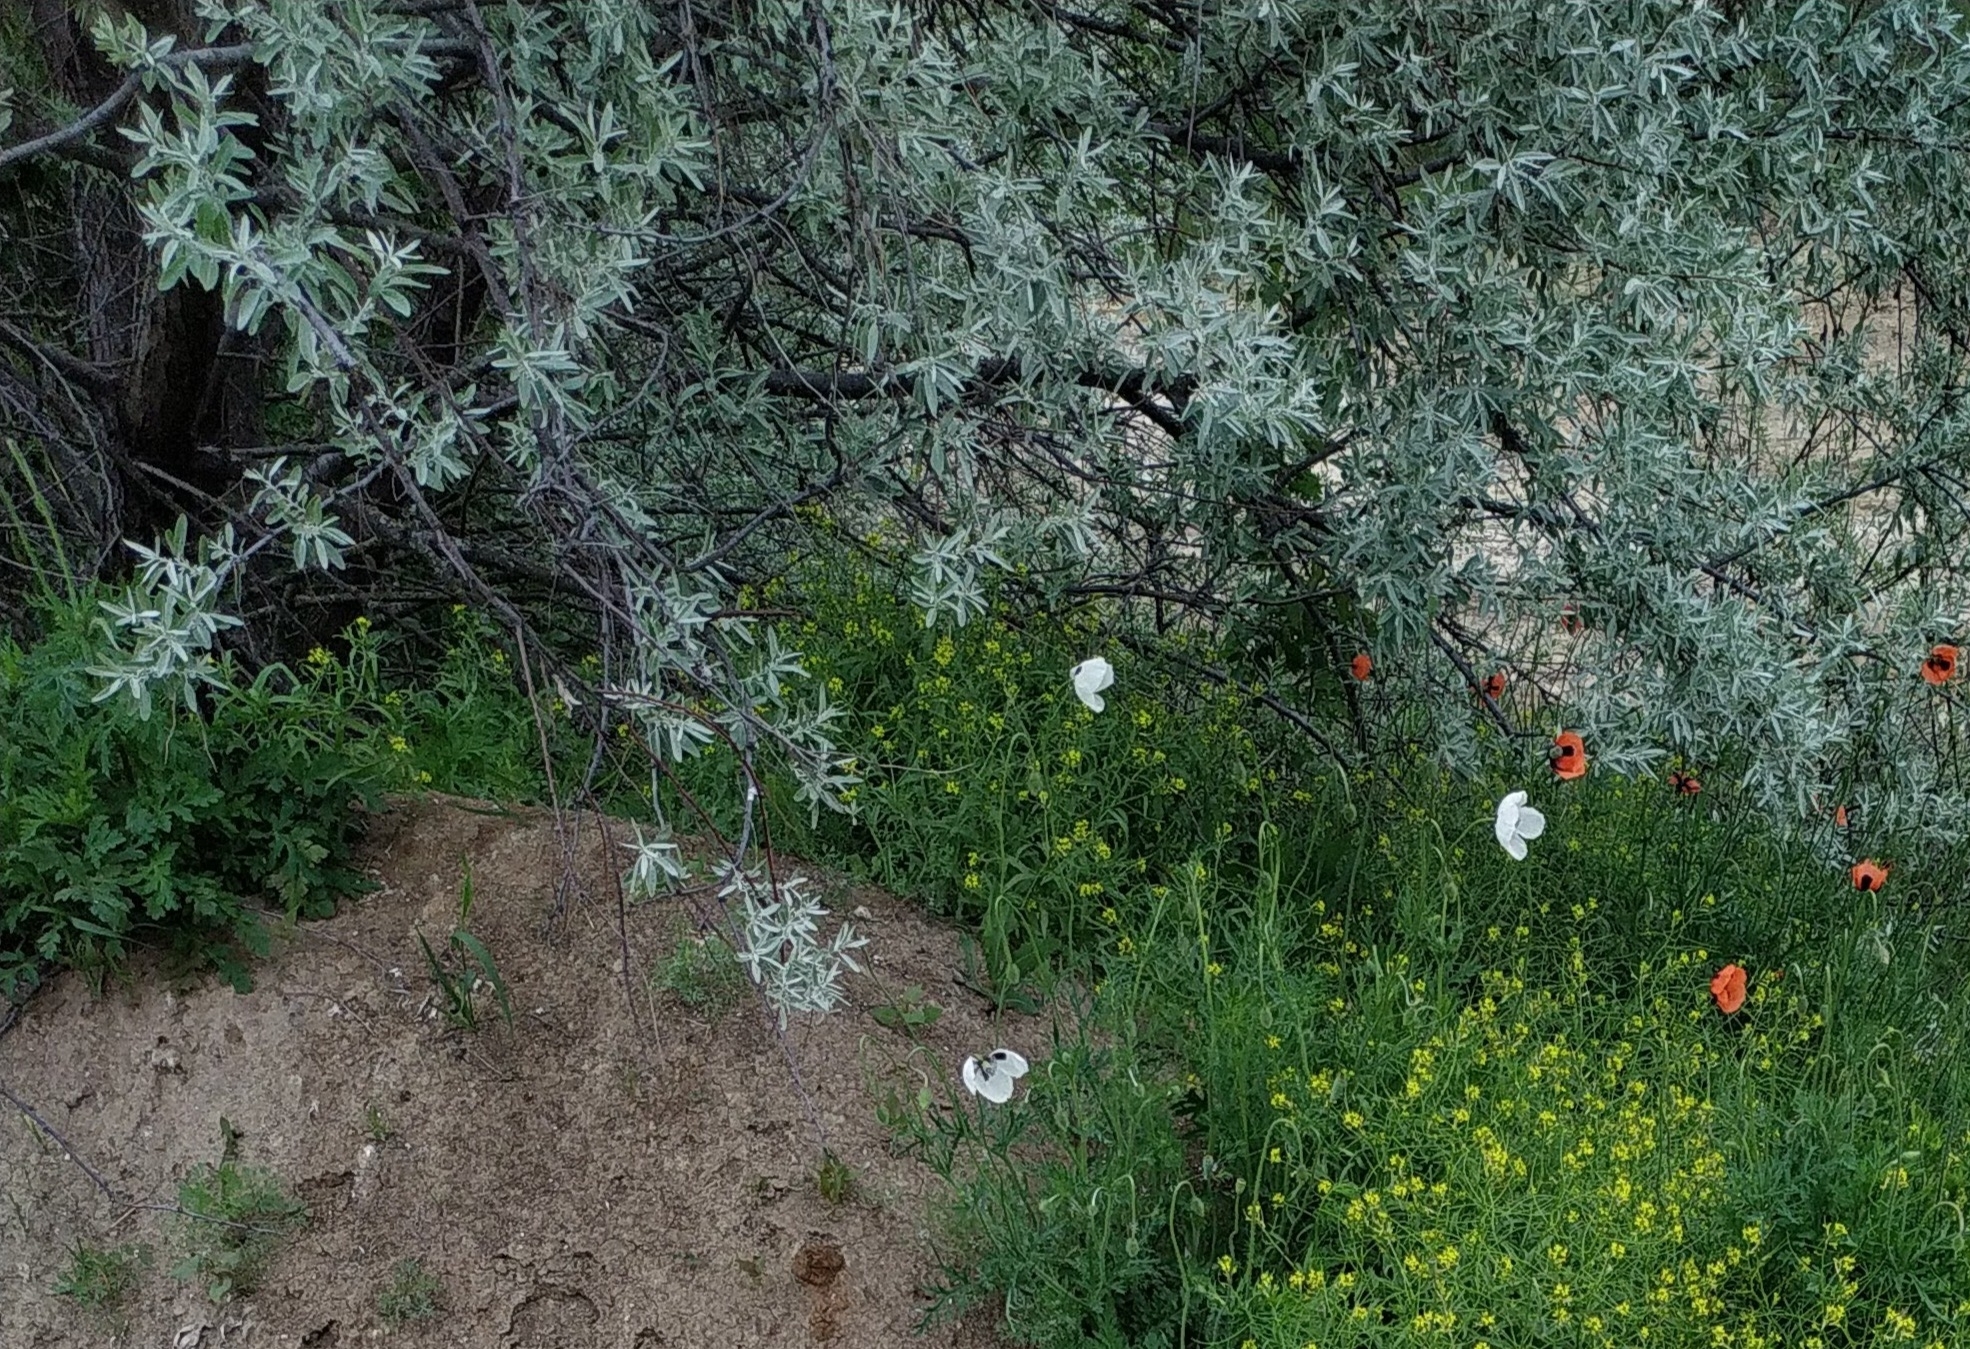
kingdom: Plantae
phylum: Tracheophyta
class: Magnoliopsida
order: Rosales
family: Elaeagnaceae
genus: Elaeagnus
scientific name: Elaeagnus angustifolia
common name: Russian olive
